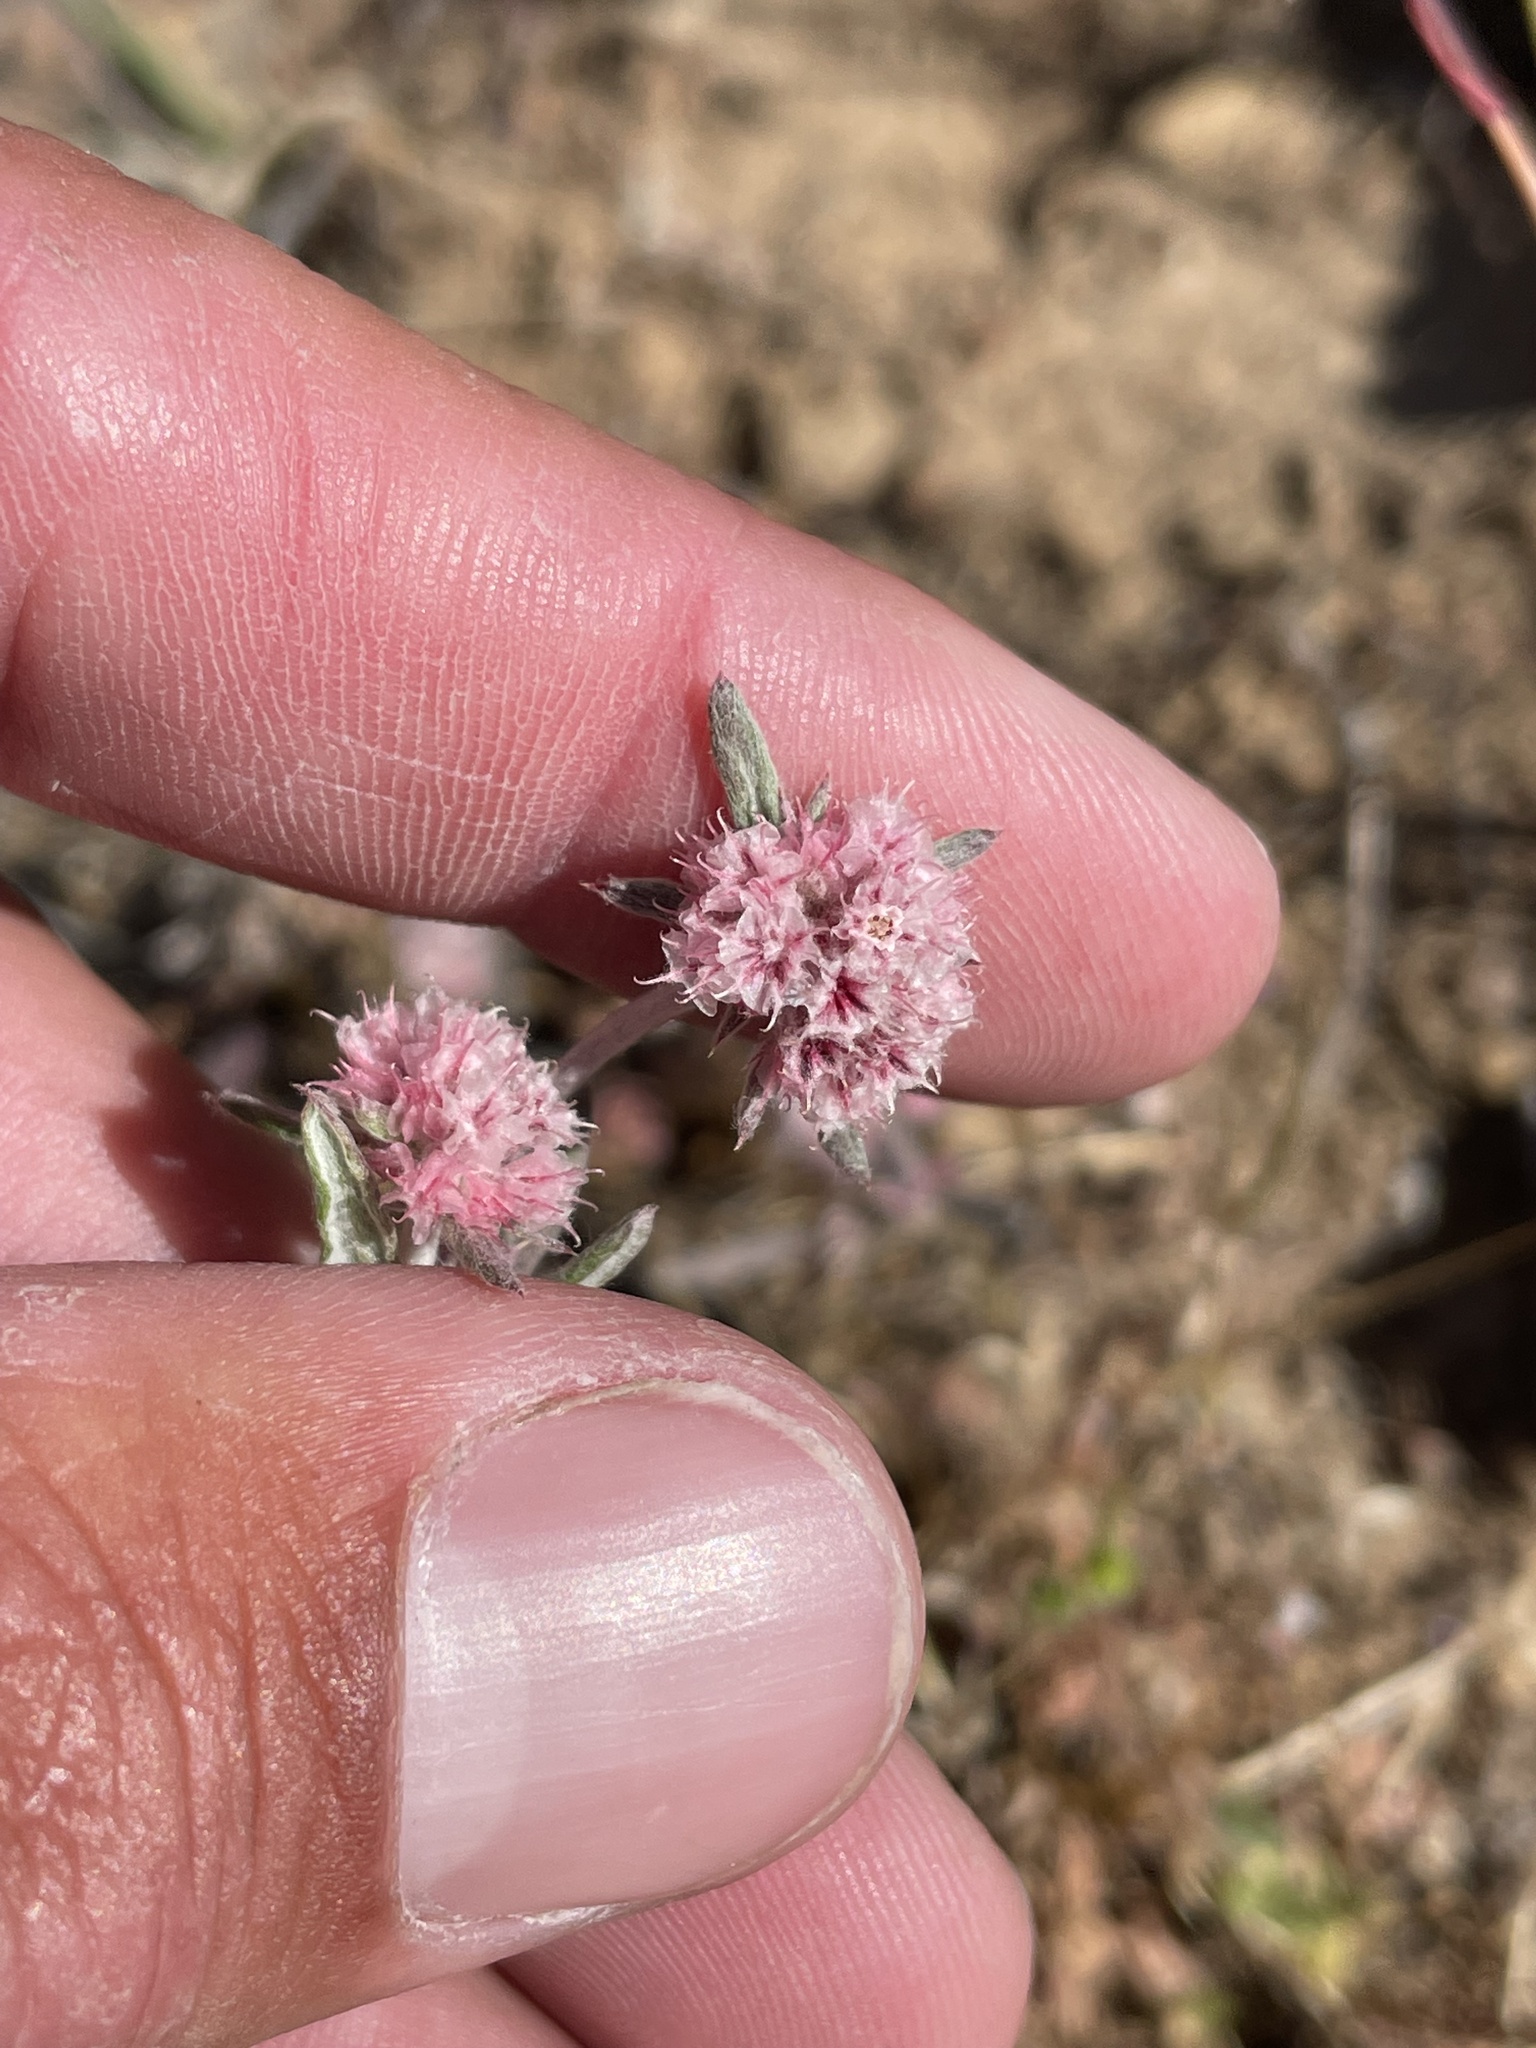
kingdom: Plantae
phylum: Tracheophyta
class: Magnoliopsida
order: Caryophyllales
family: Polygonaceae
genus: Chorizanthe
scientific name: Chorizanthe membranacea
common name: Pink spineflower
